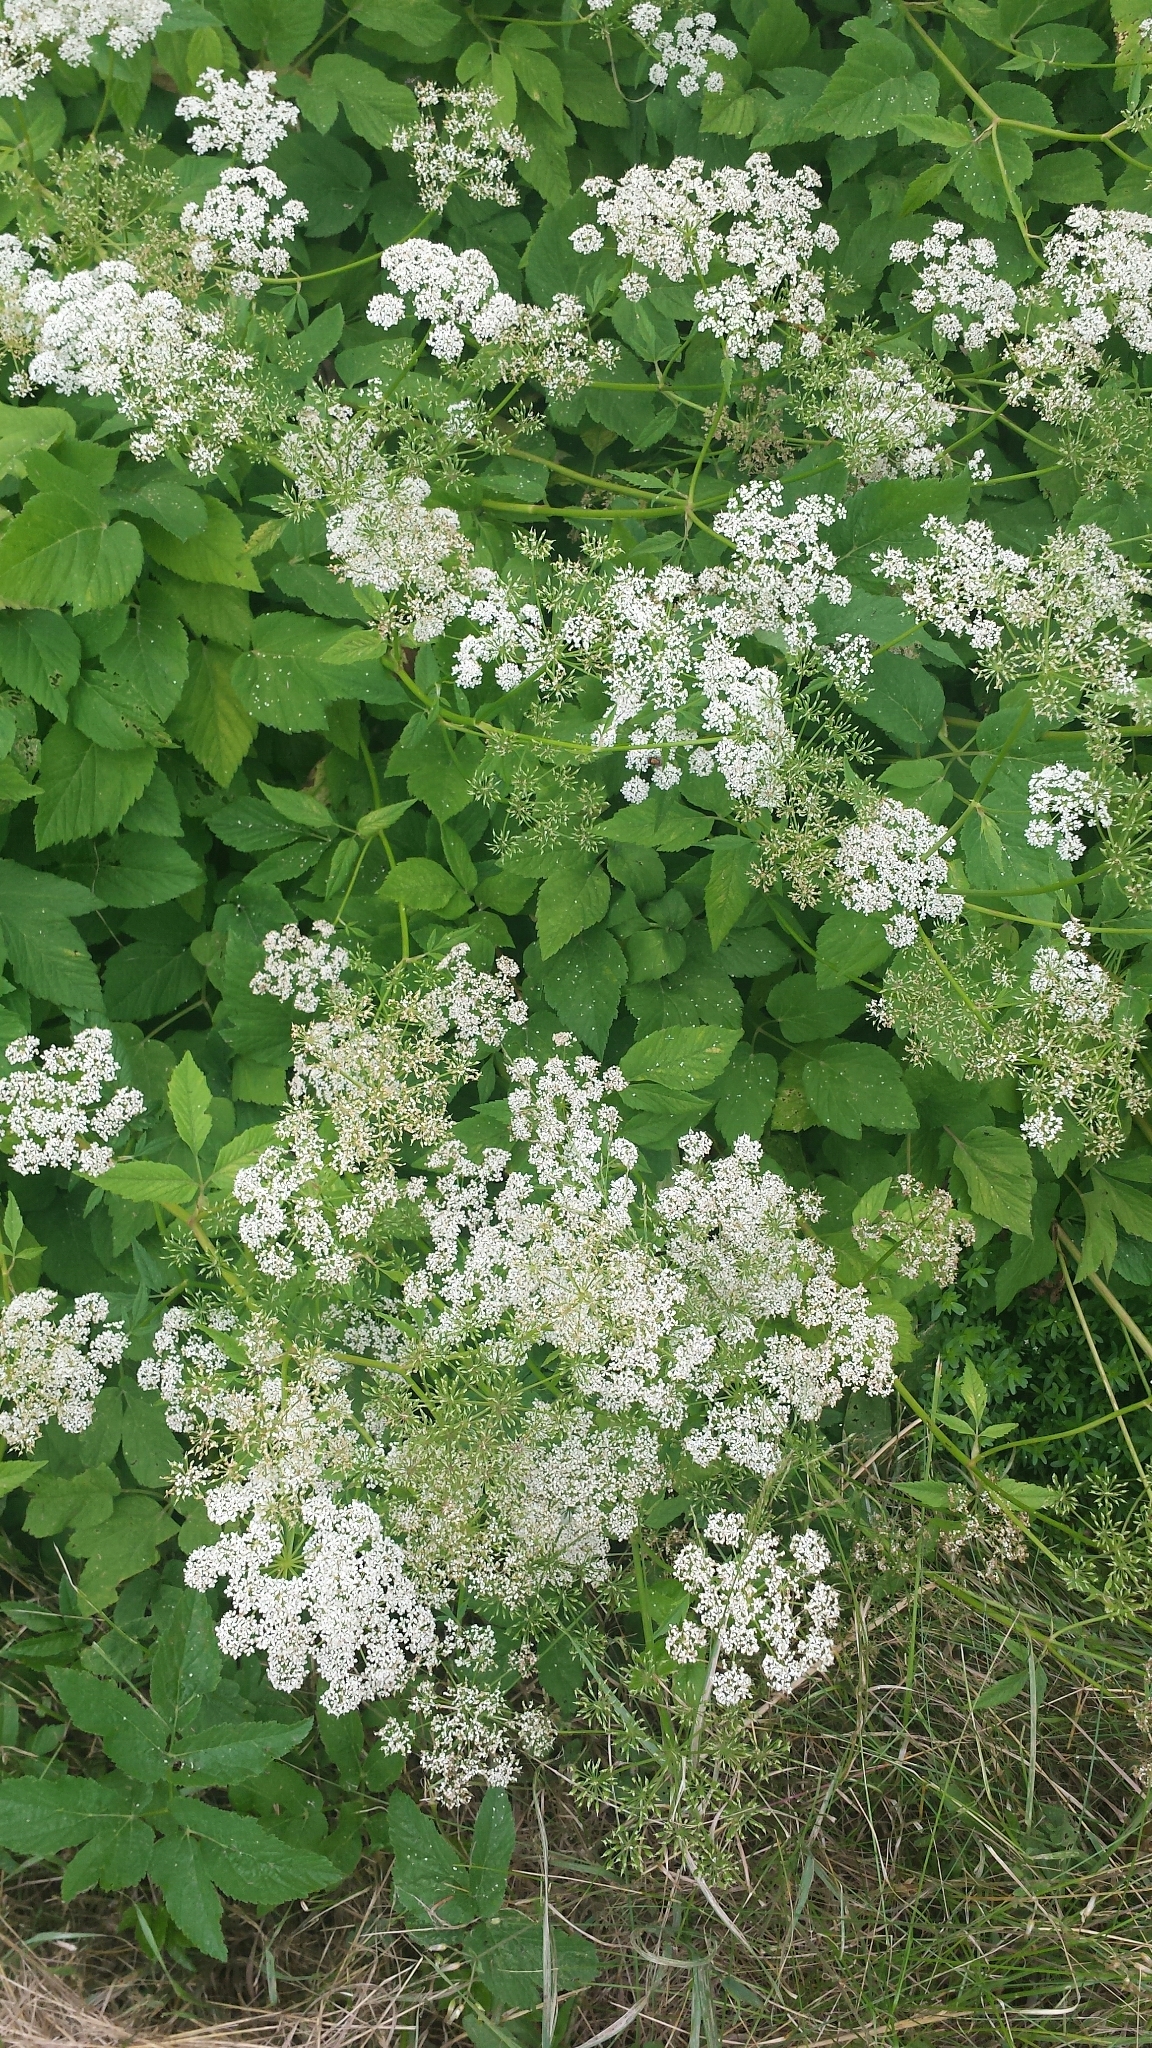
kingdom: Plantae
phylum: Tracheophyta
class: Magnoliopsida
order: Apiales
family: Apiaceae
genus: Aegopodium
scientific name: Aegopodium podagraria
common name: Ground-elder
